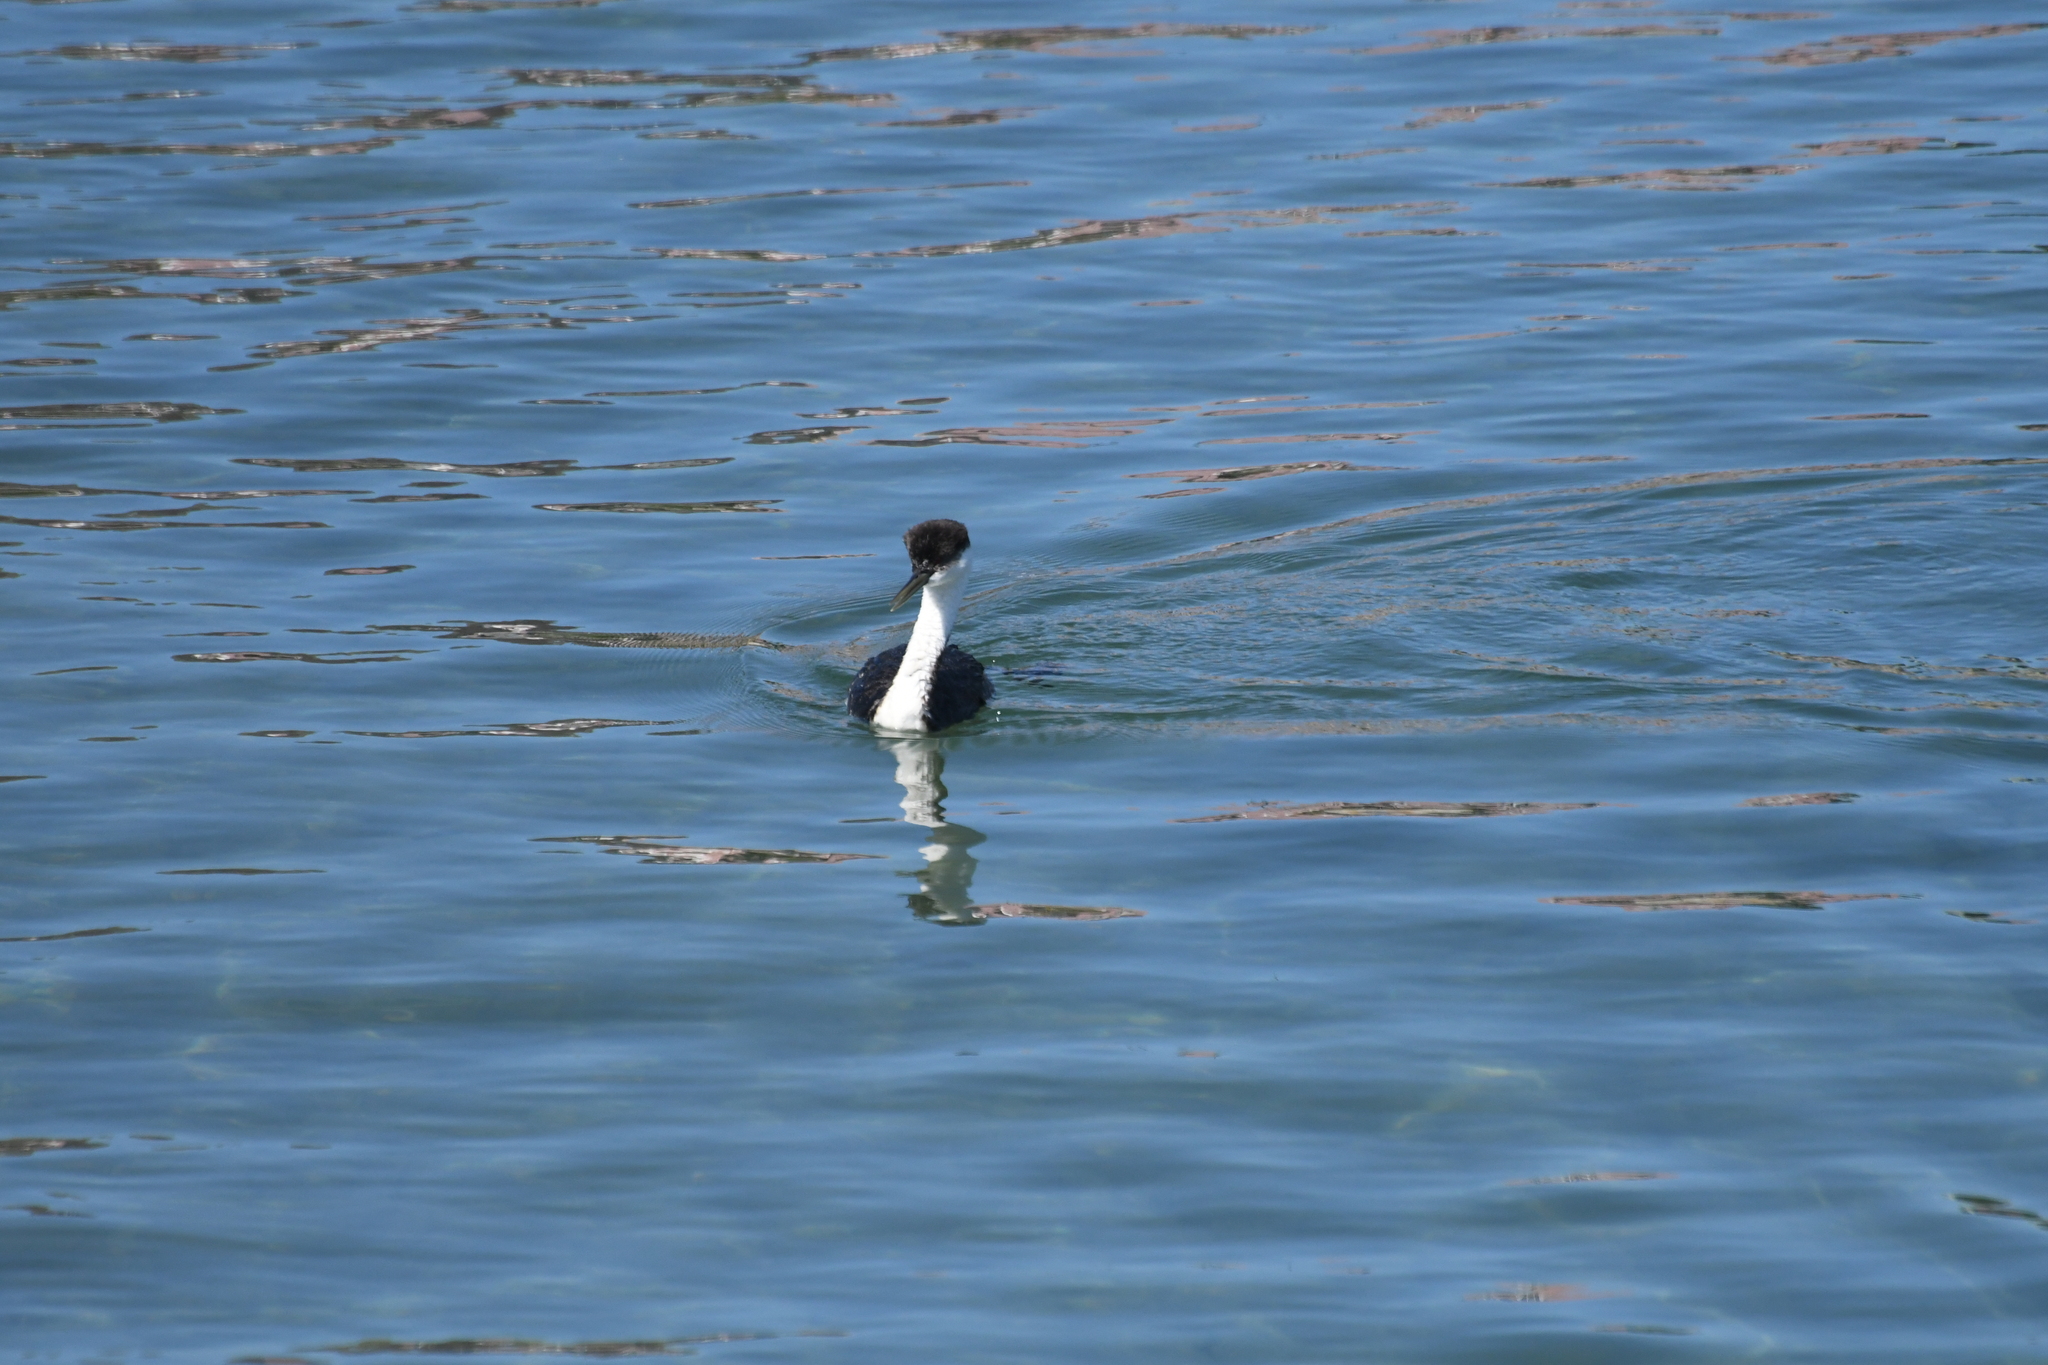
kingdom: Animalia
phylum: Chordata
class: Aves
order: Podicipediformes
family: Podicipedidae
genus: Aechmophorus
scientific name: Aechmophorus occidentalis
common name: Western grebe
